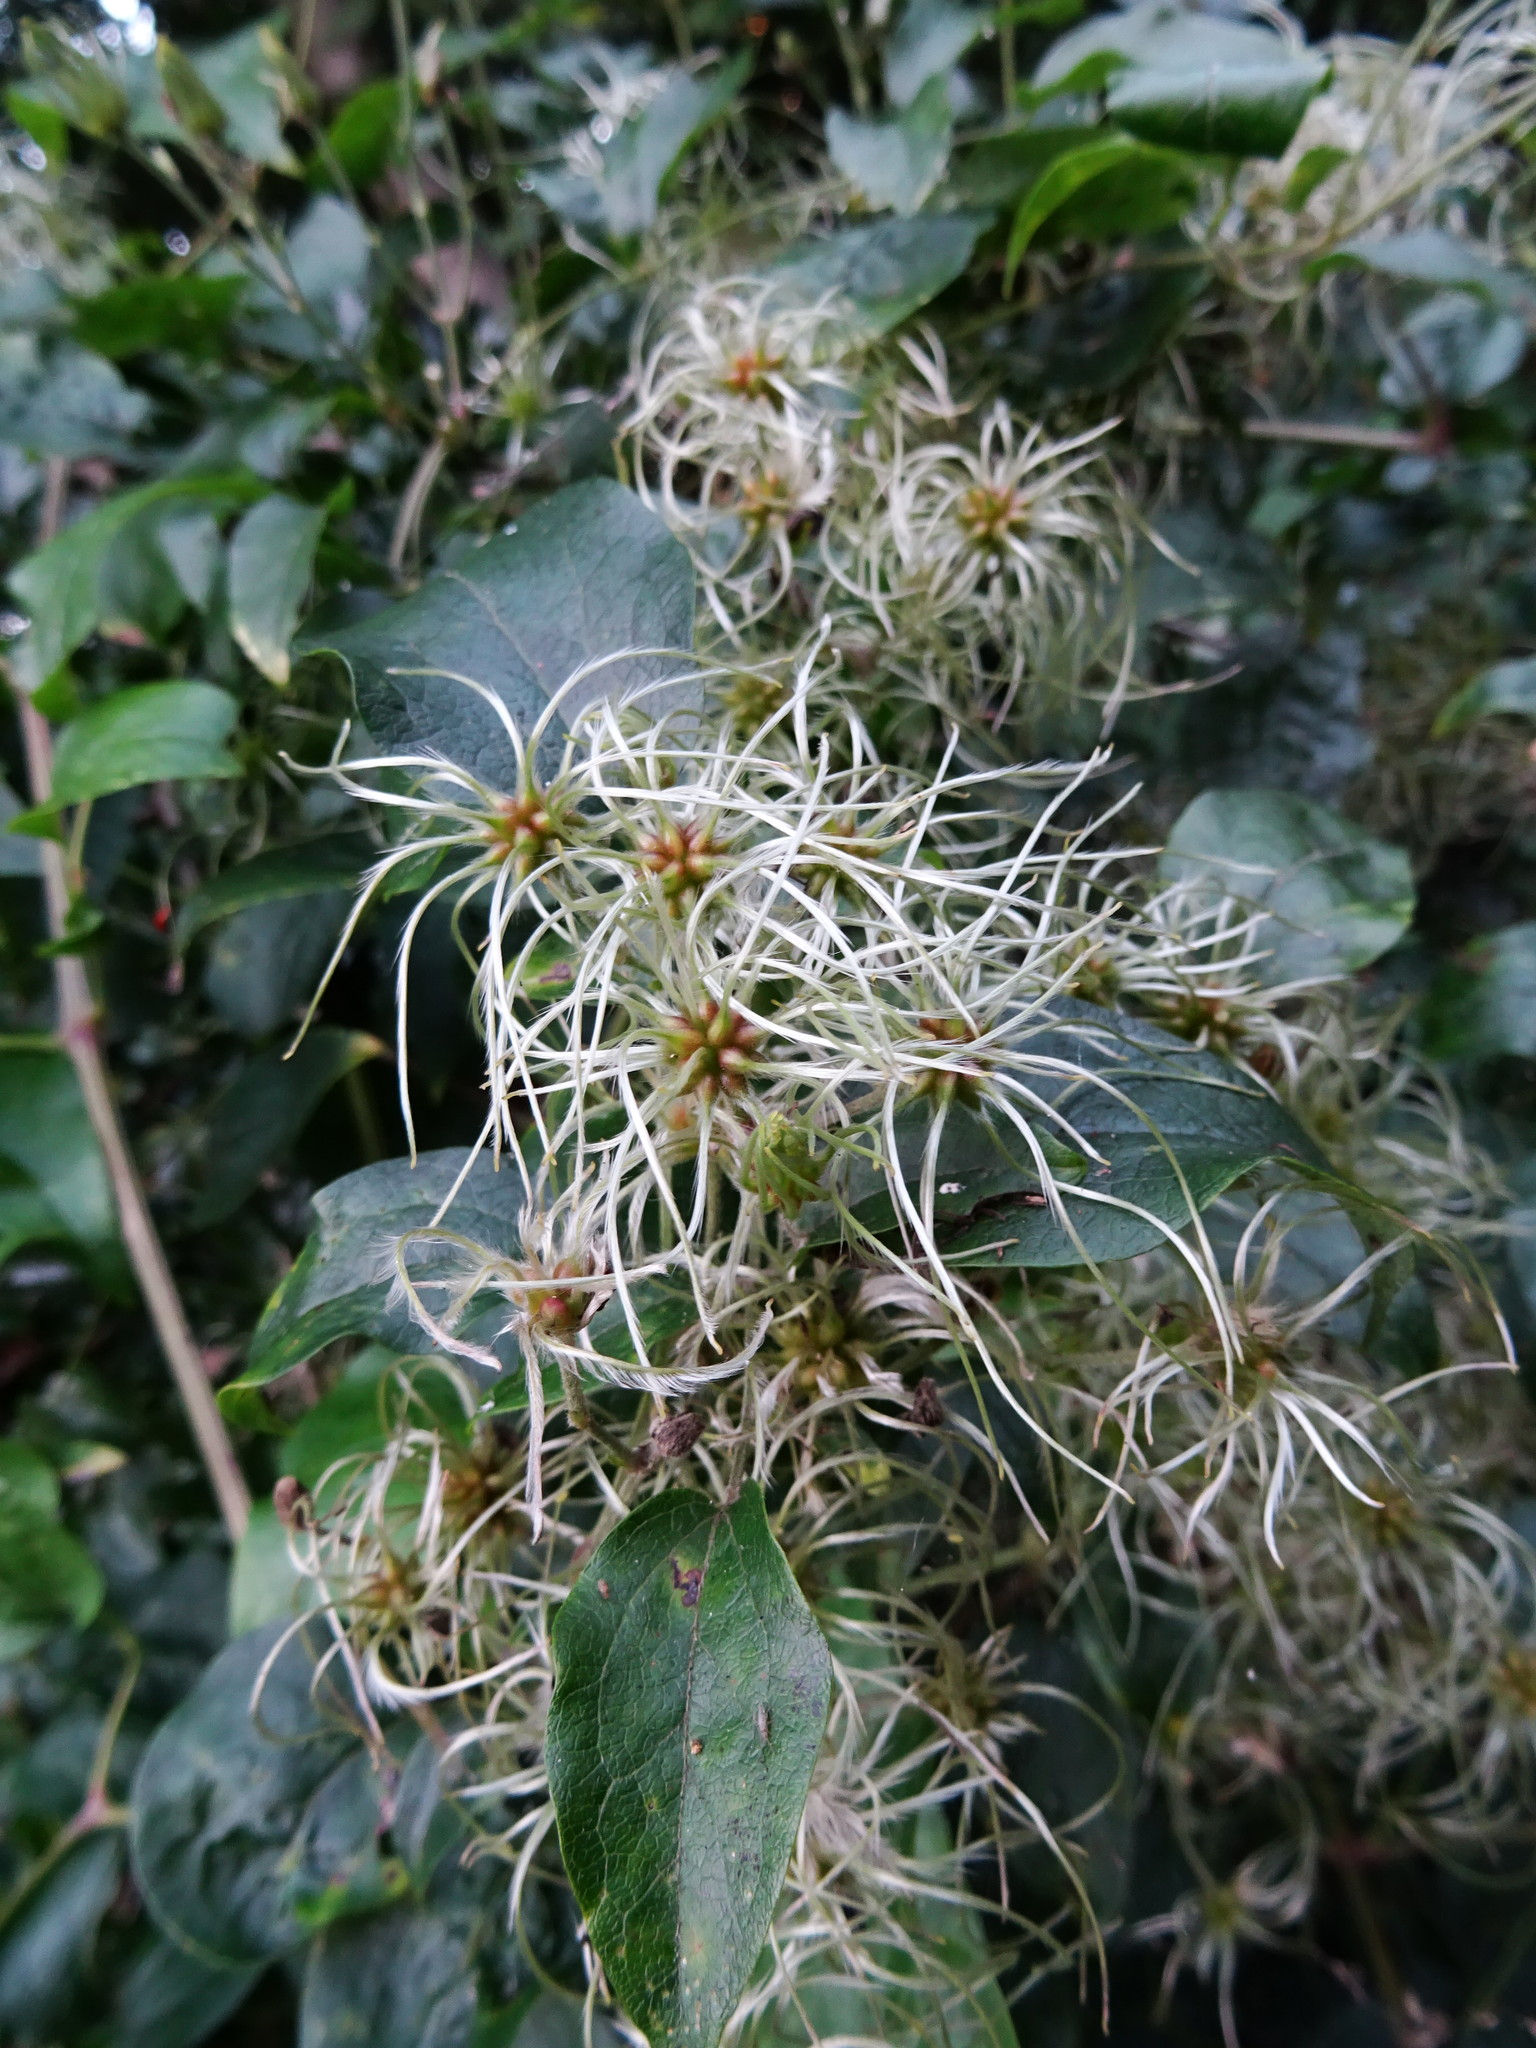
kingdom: Plantae
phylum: Tracheophyta
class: Magnoliopsida
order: Ranunculales
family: Ranunculaceae
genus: Clematis
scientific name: Clematis vitalba
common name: Evergreen clematis
